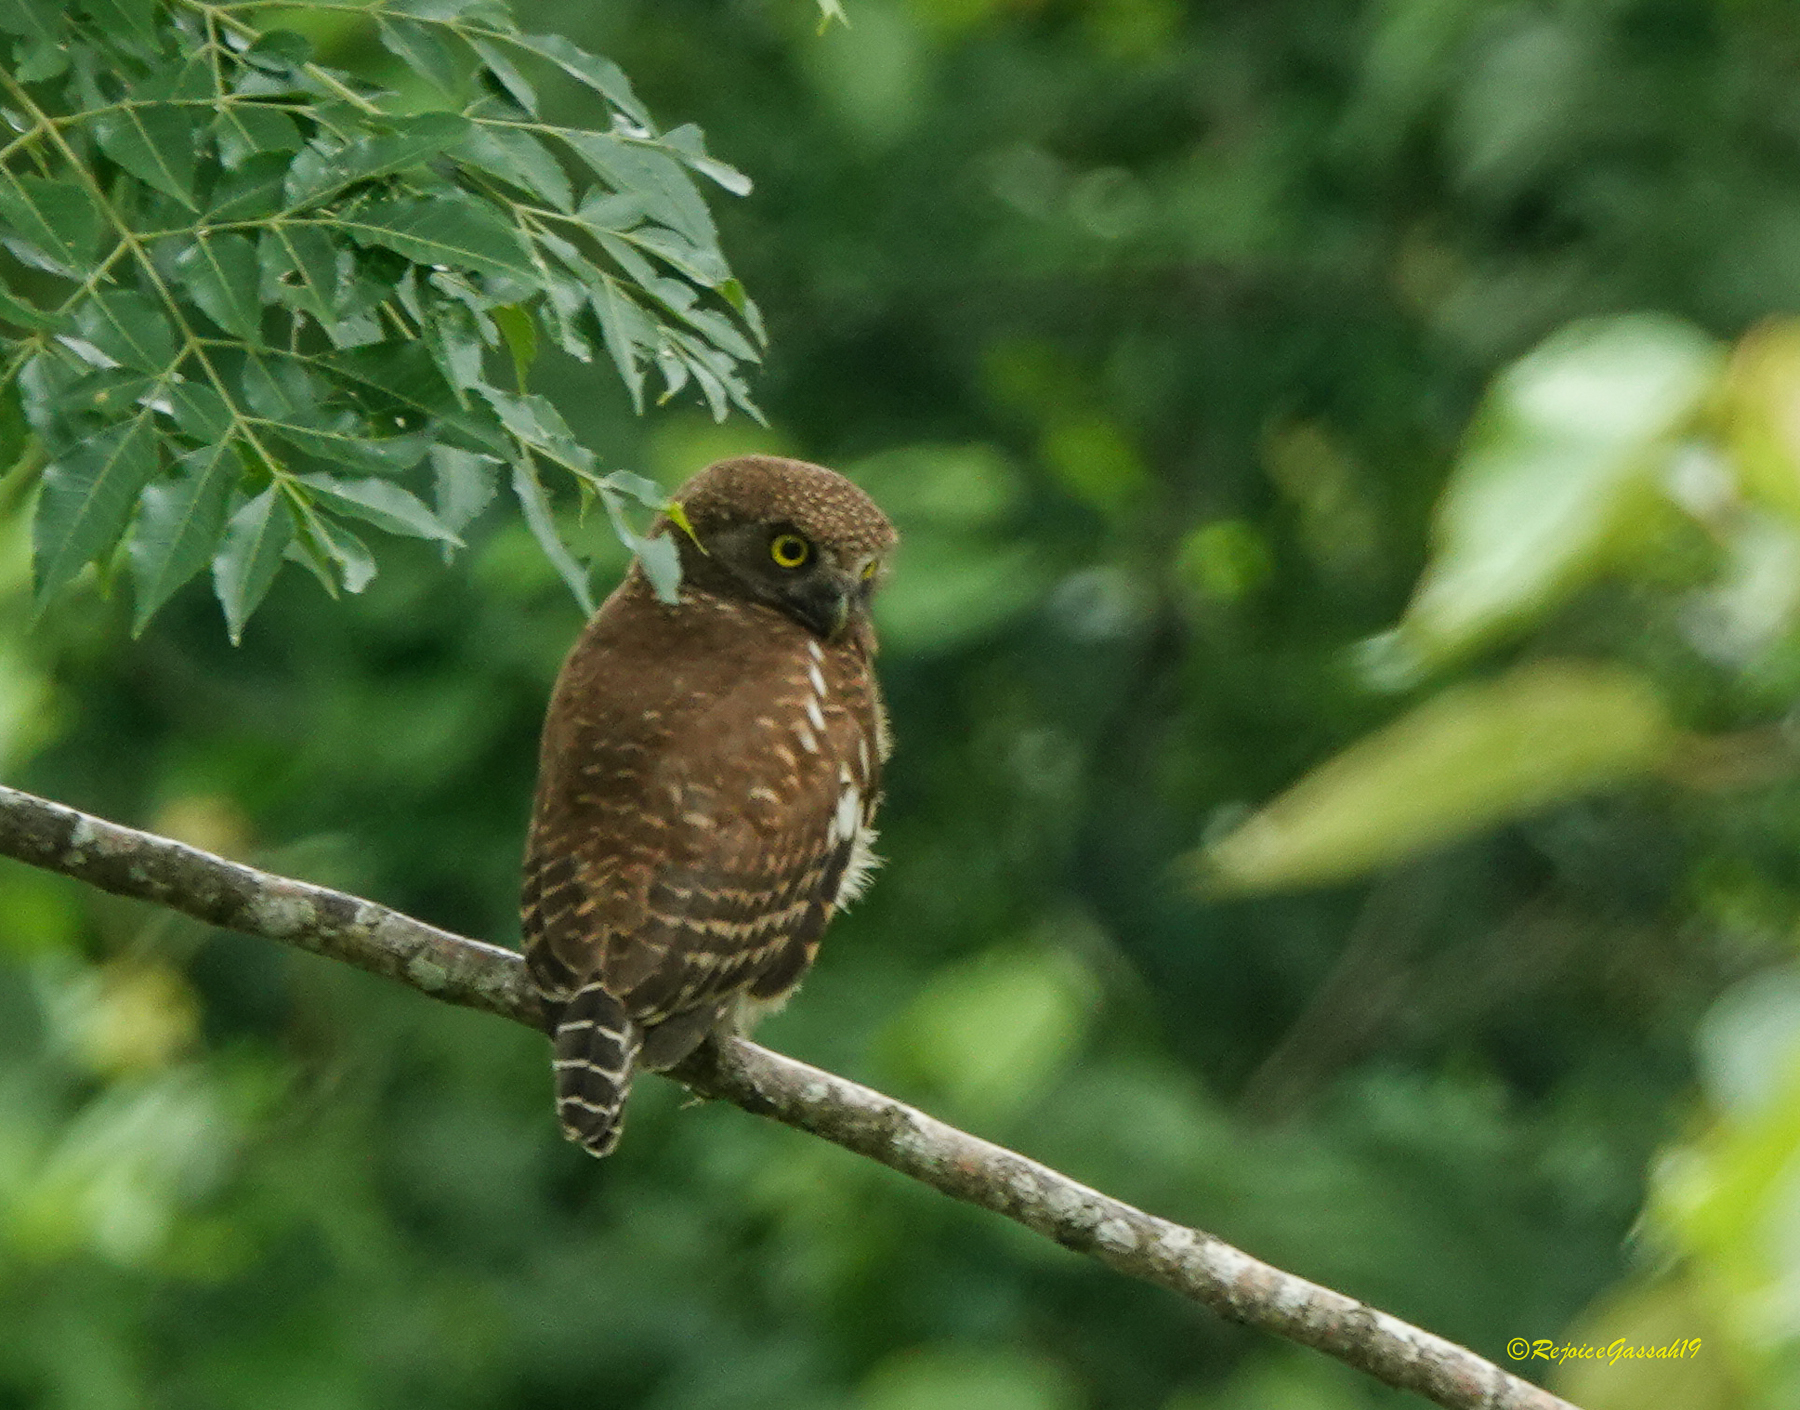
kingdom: Animalia
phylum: Chordata
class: Aves
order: Strigiformes
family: Strigidae
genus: Glaucidium
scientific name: Glaucidium cuculoides
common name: Asian barred owlet
